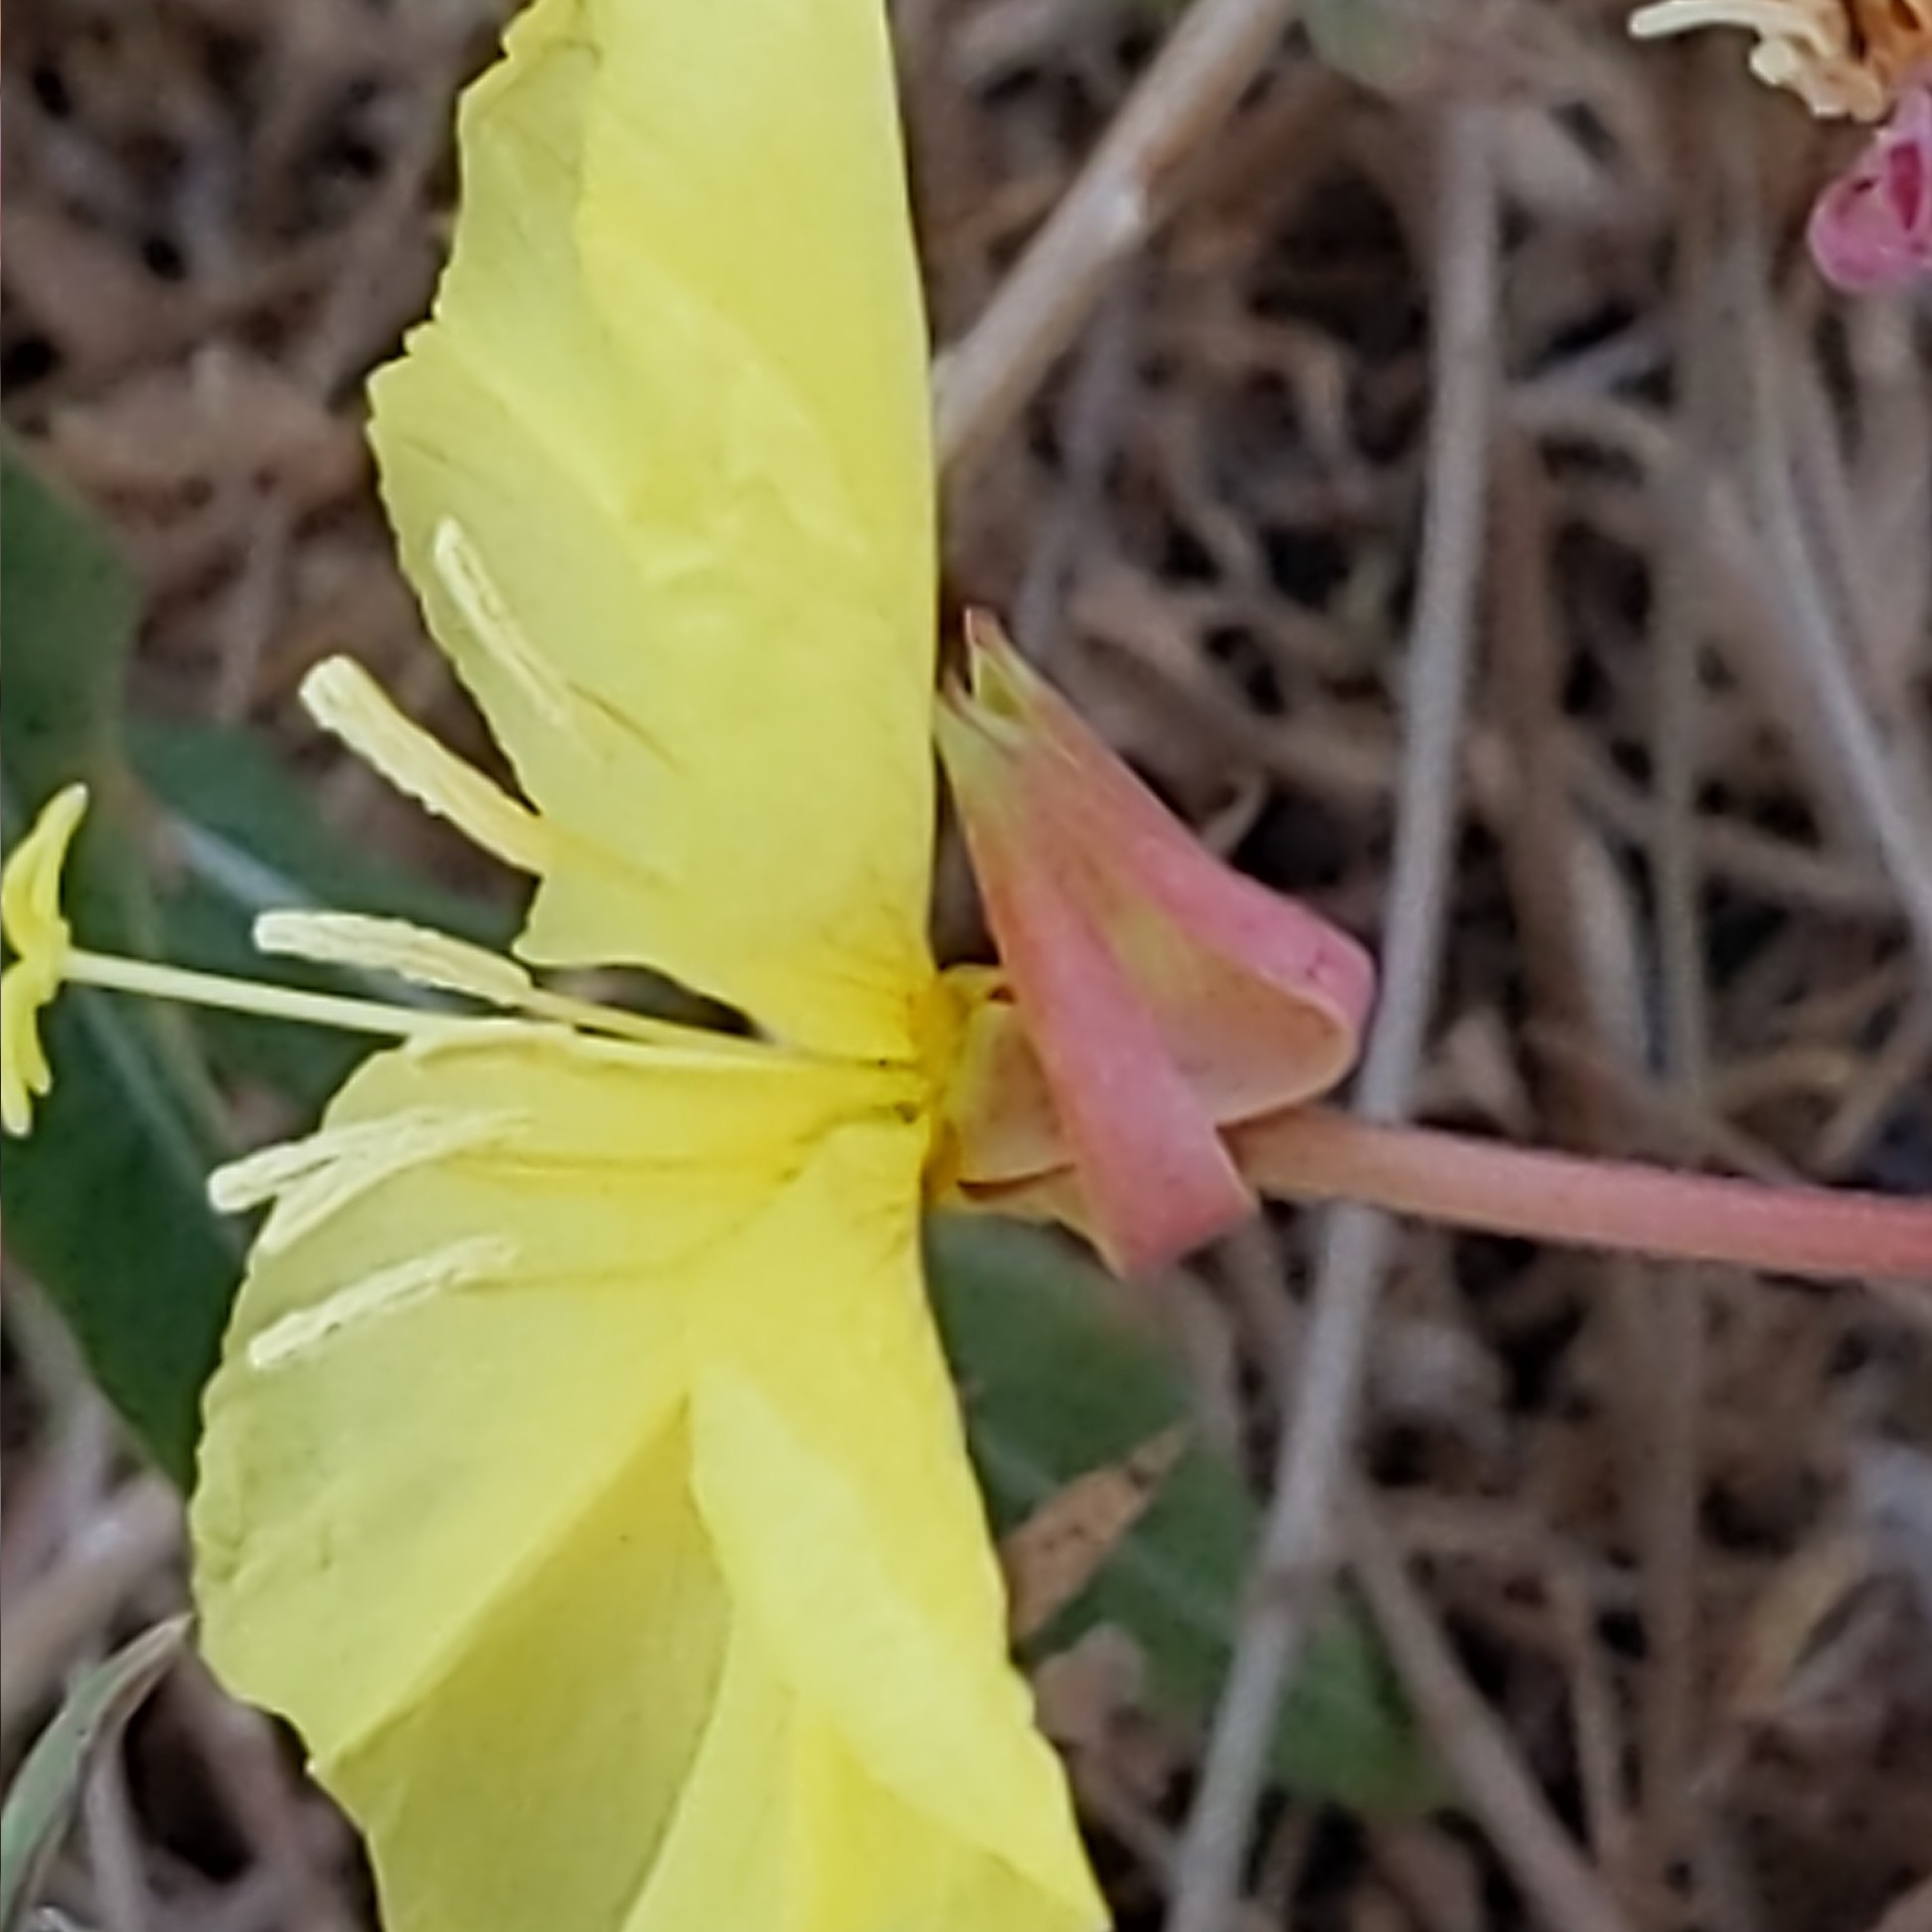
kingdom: Plantae
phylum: Tracheophyta
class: Magnoliopsida
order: Myrtales
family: Onagraceae
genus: Oenothera
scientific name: Oenothera elata
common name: Hooker's evening-primrose
